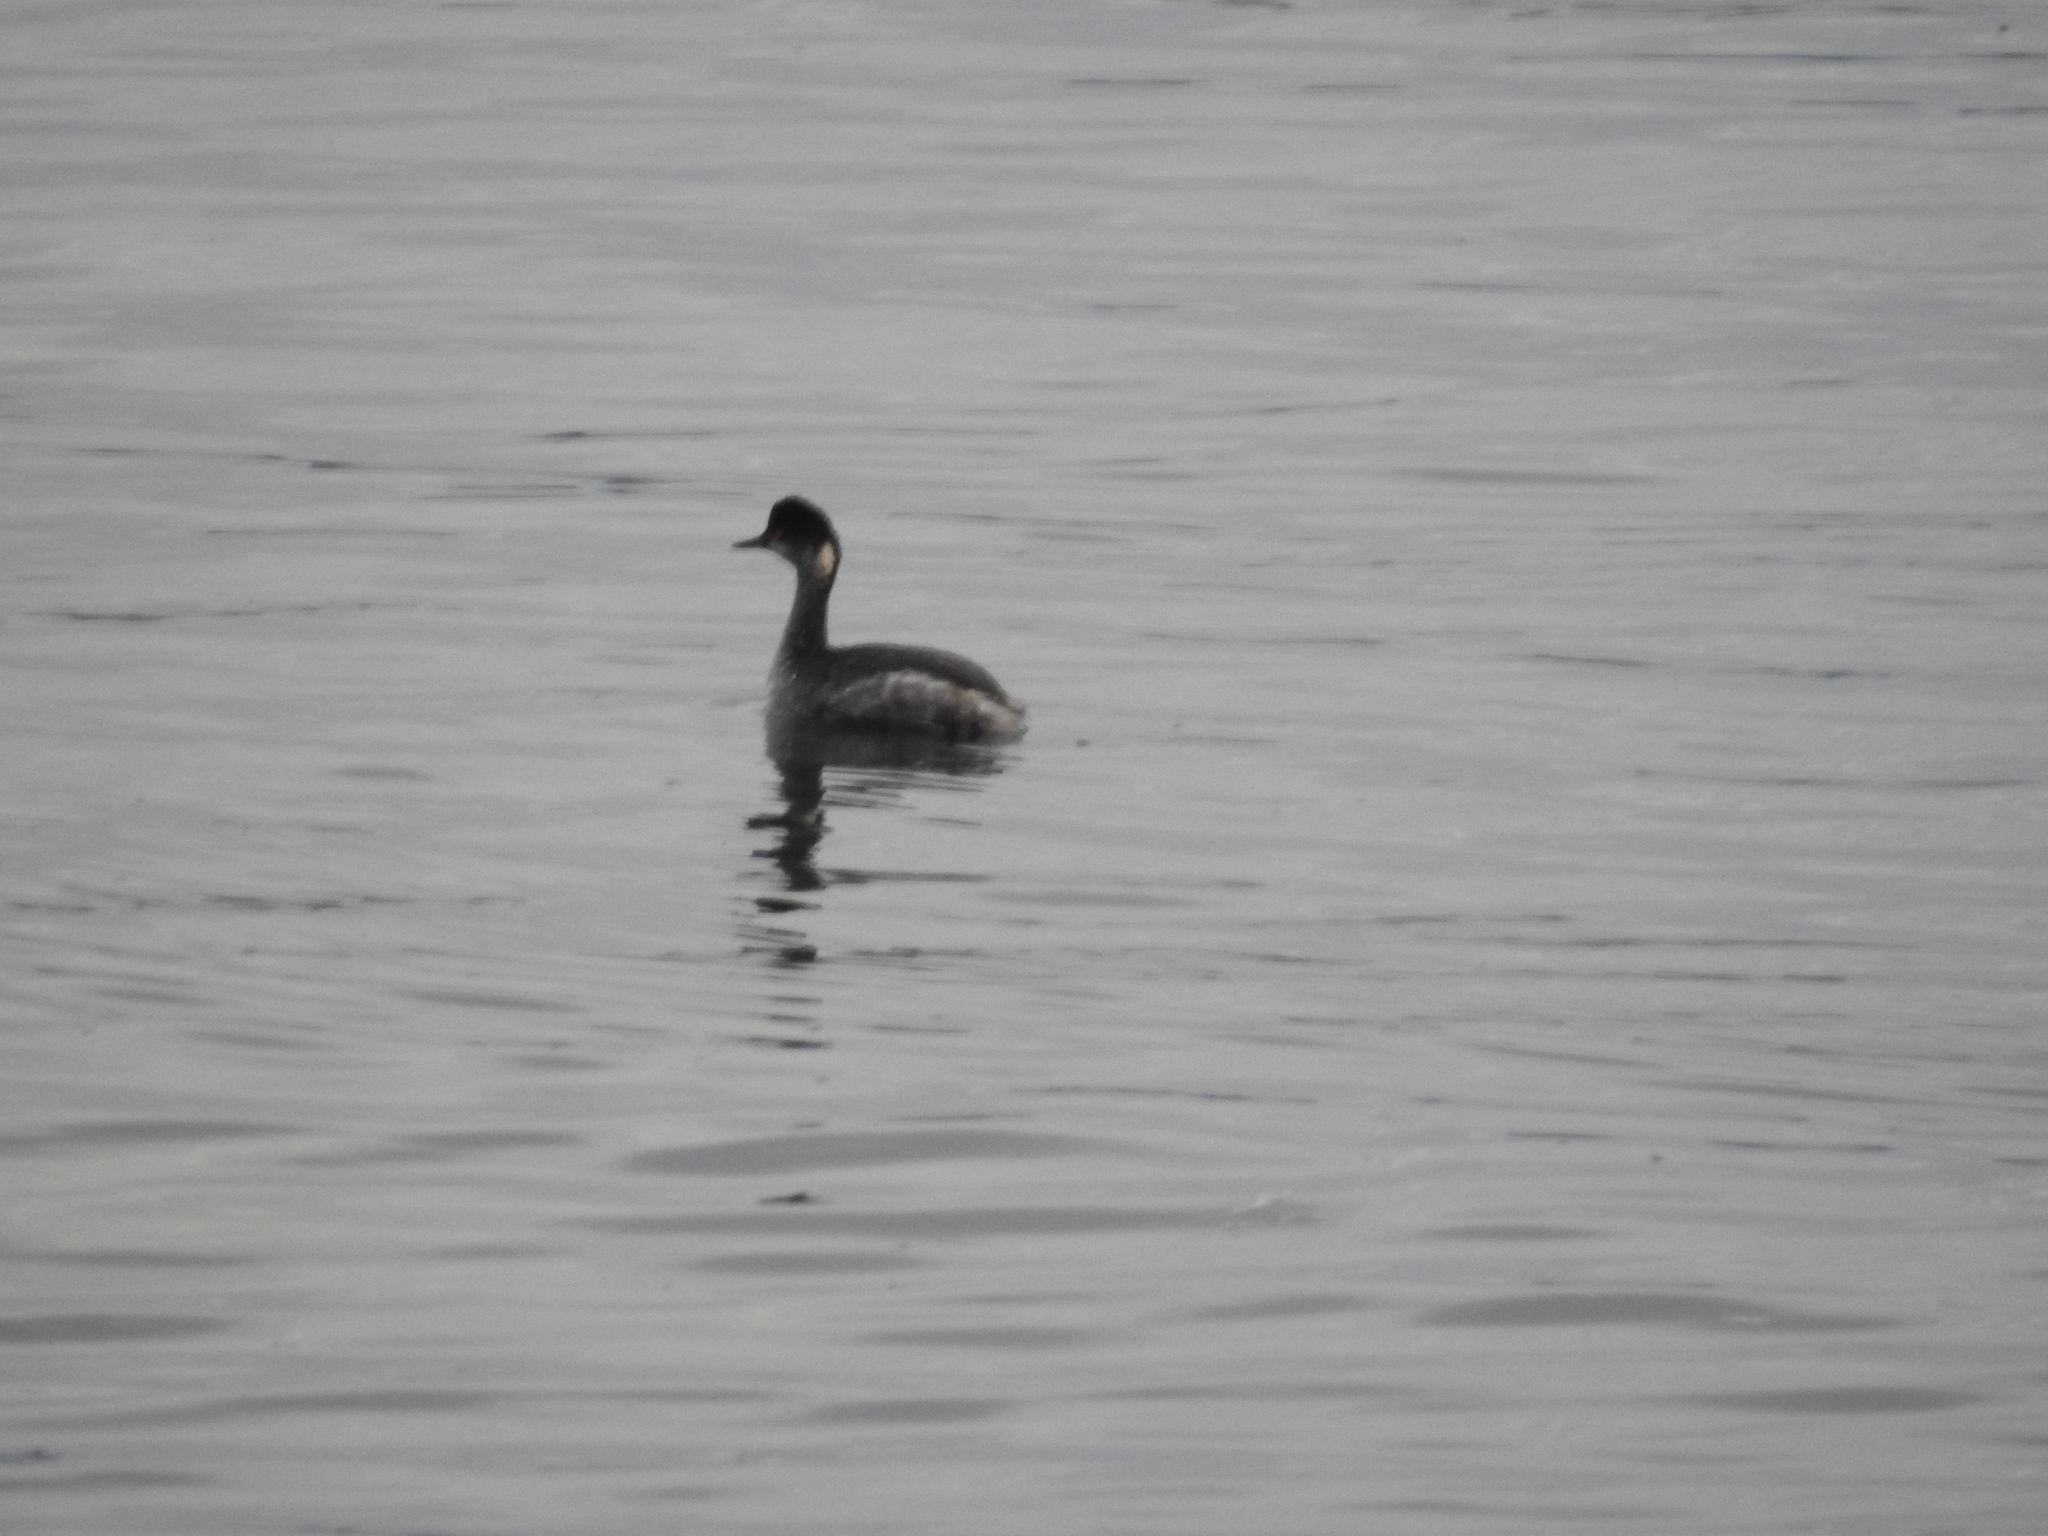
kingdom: Animalia
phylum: Chordata
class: Aves
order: Podicipediformes
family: Podicipedidae
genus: Podiceps
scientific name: Podiceps nigricollis
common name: Black-necked grebe
